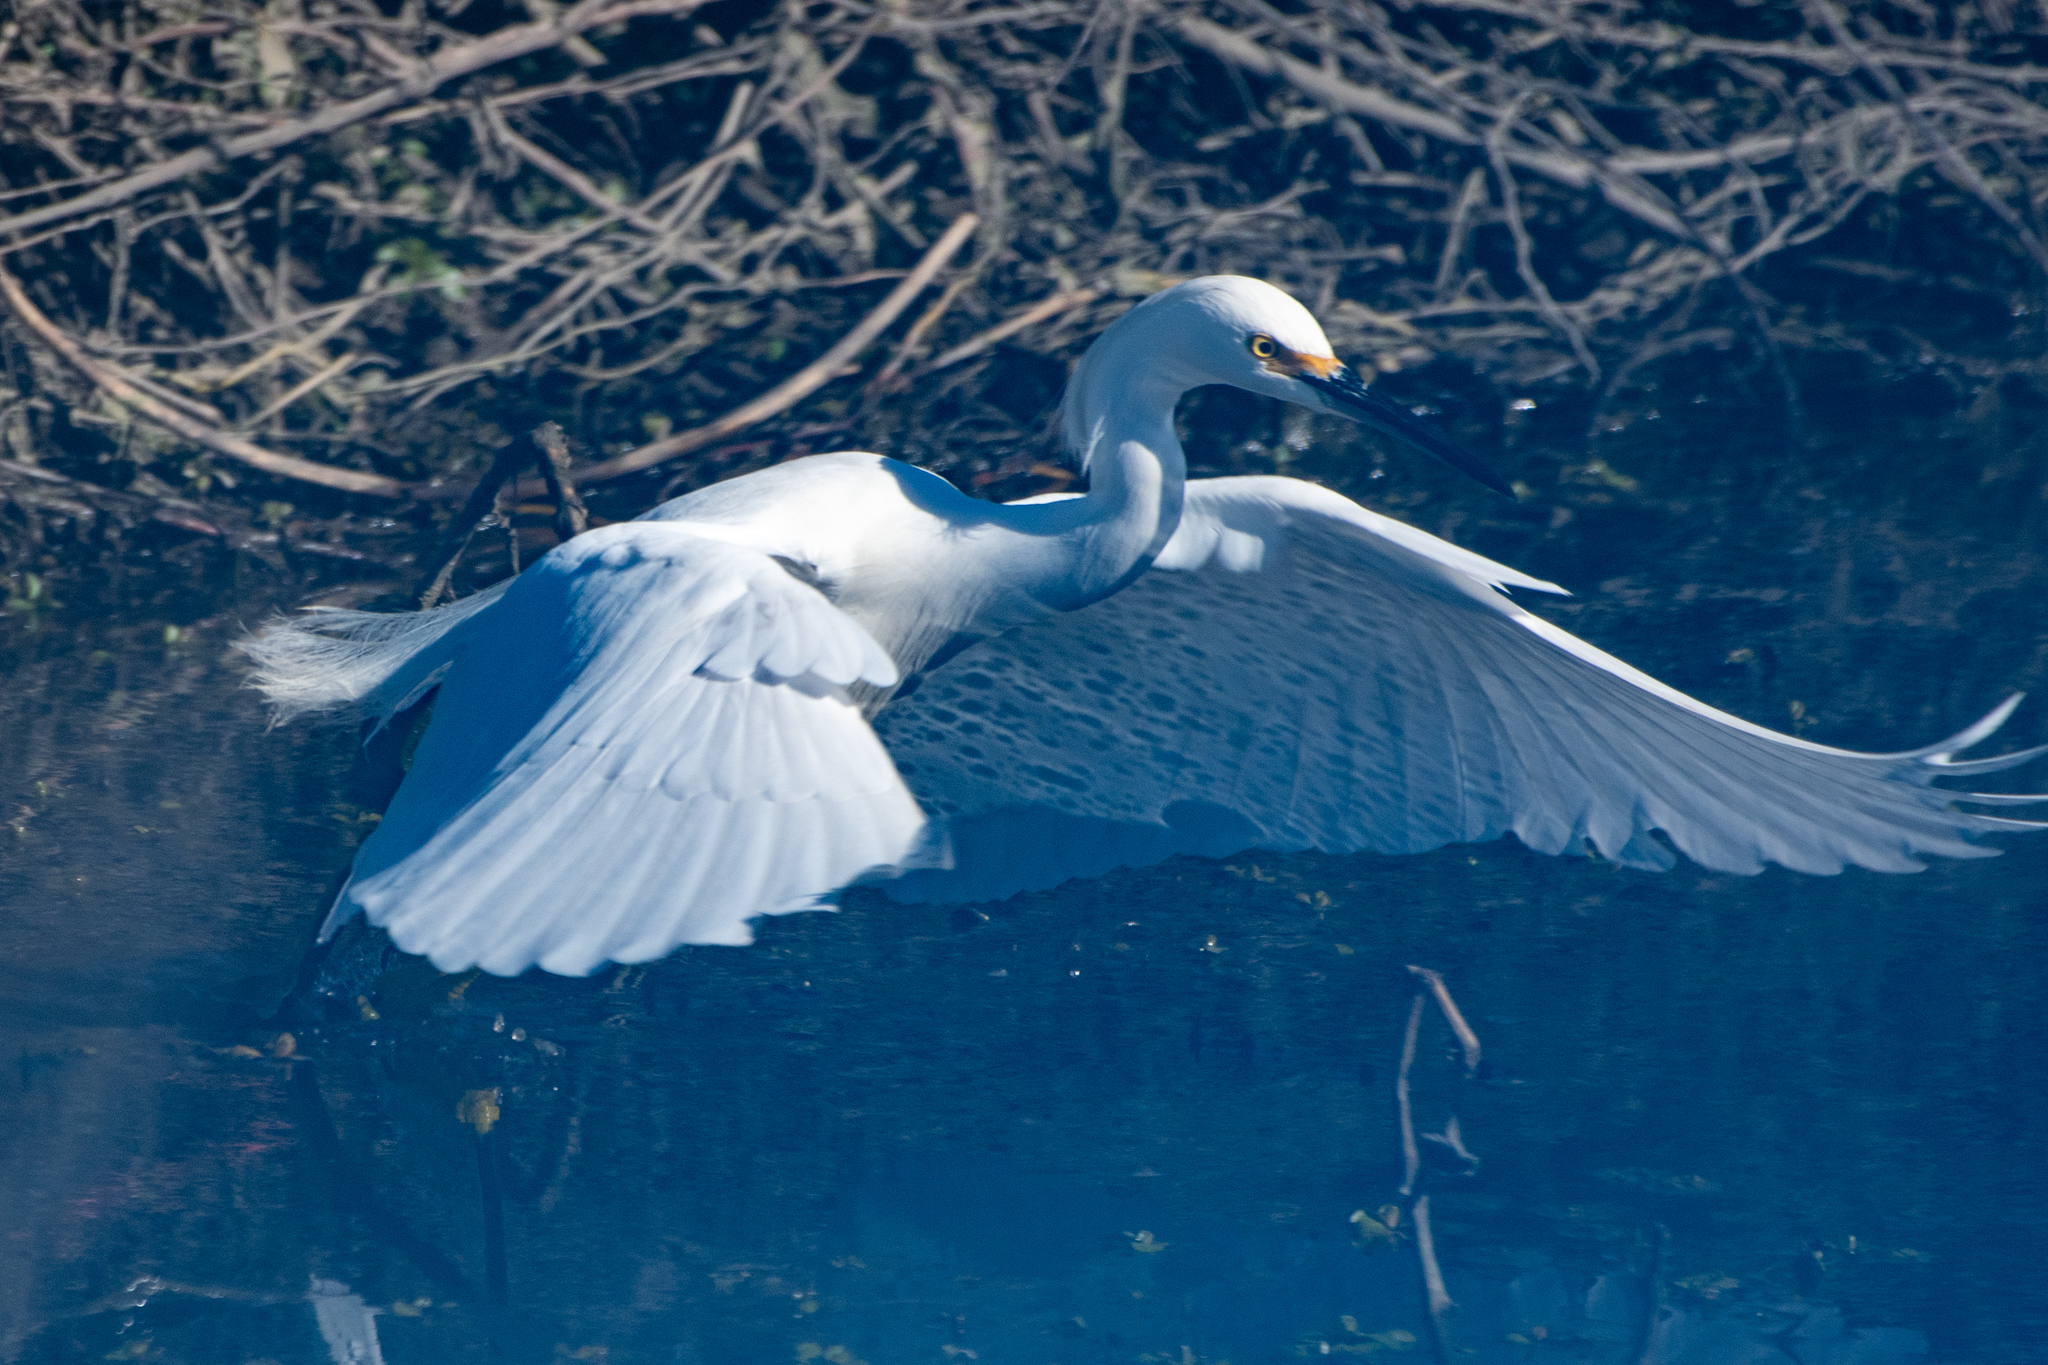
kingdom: Animalia
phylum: Chordata
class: Aves
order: Pelecaniformes
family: Ardeidae
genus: Egretta
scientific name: Egretta thula
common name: Snowy egret
